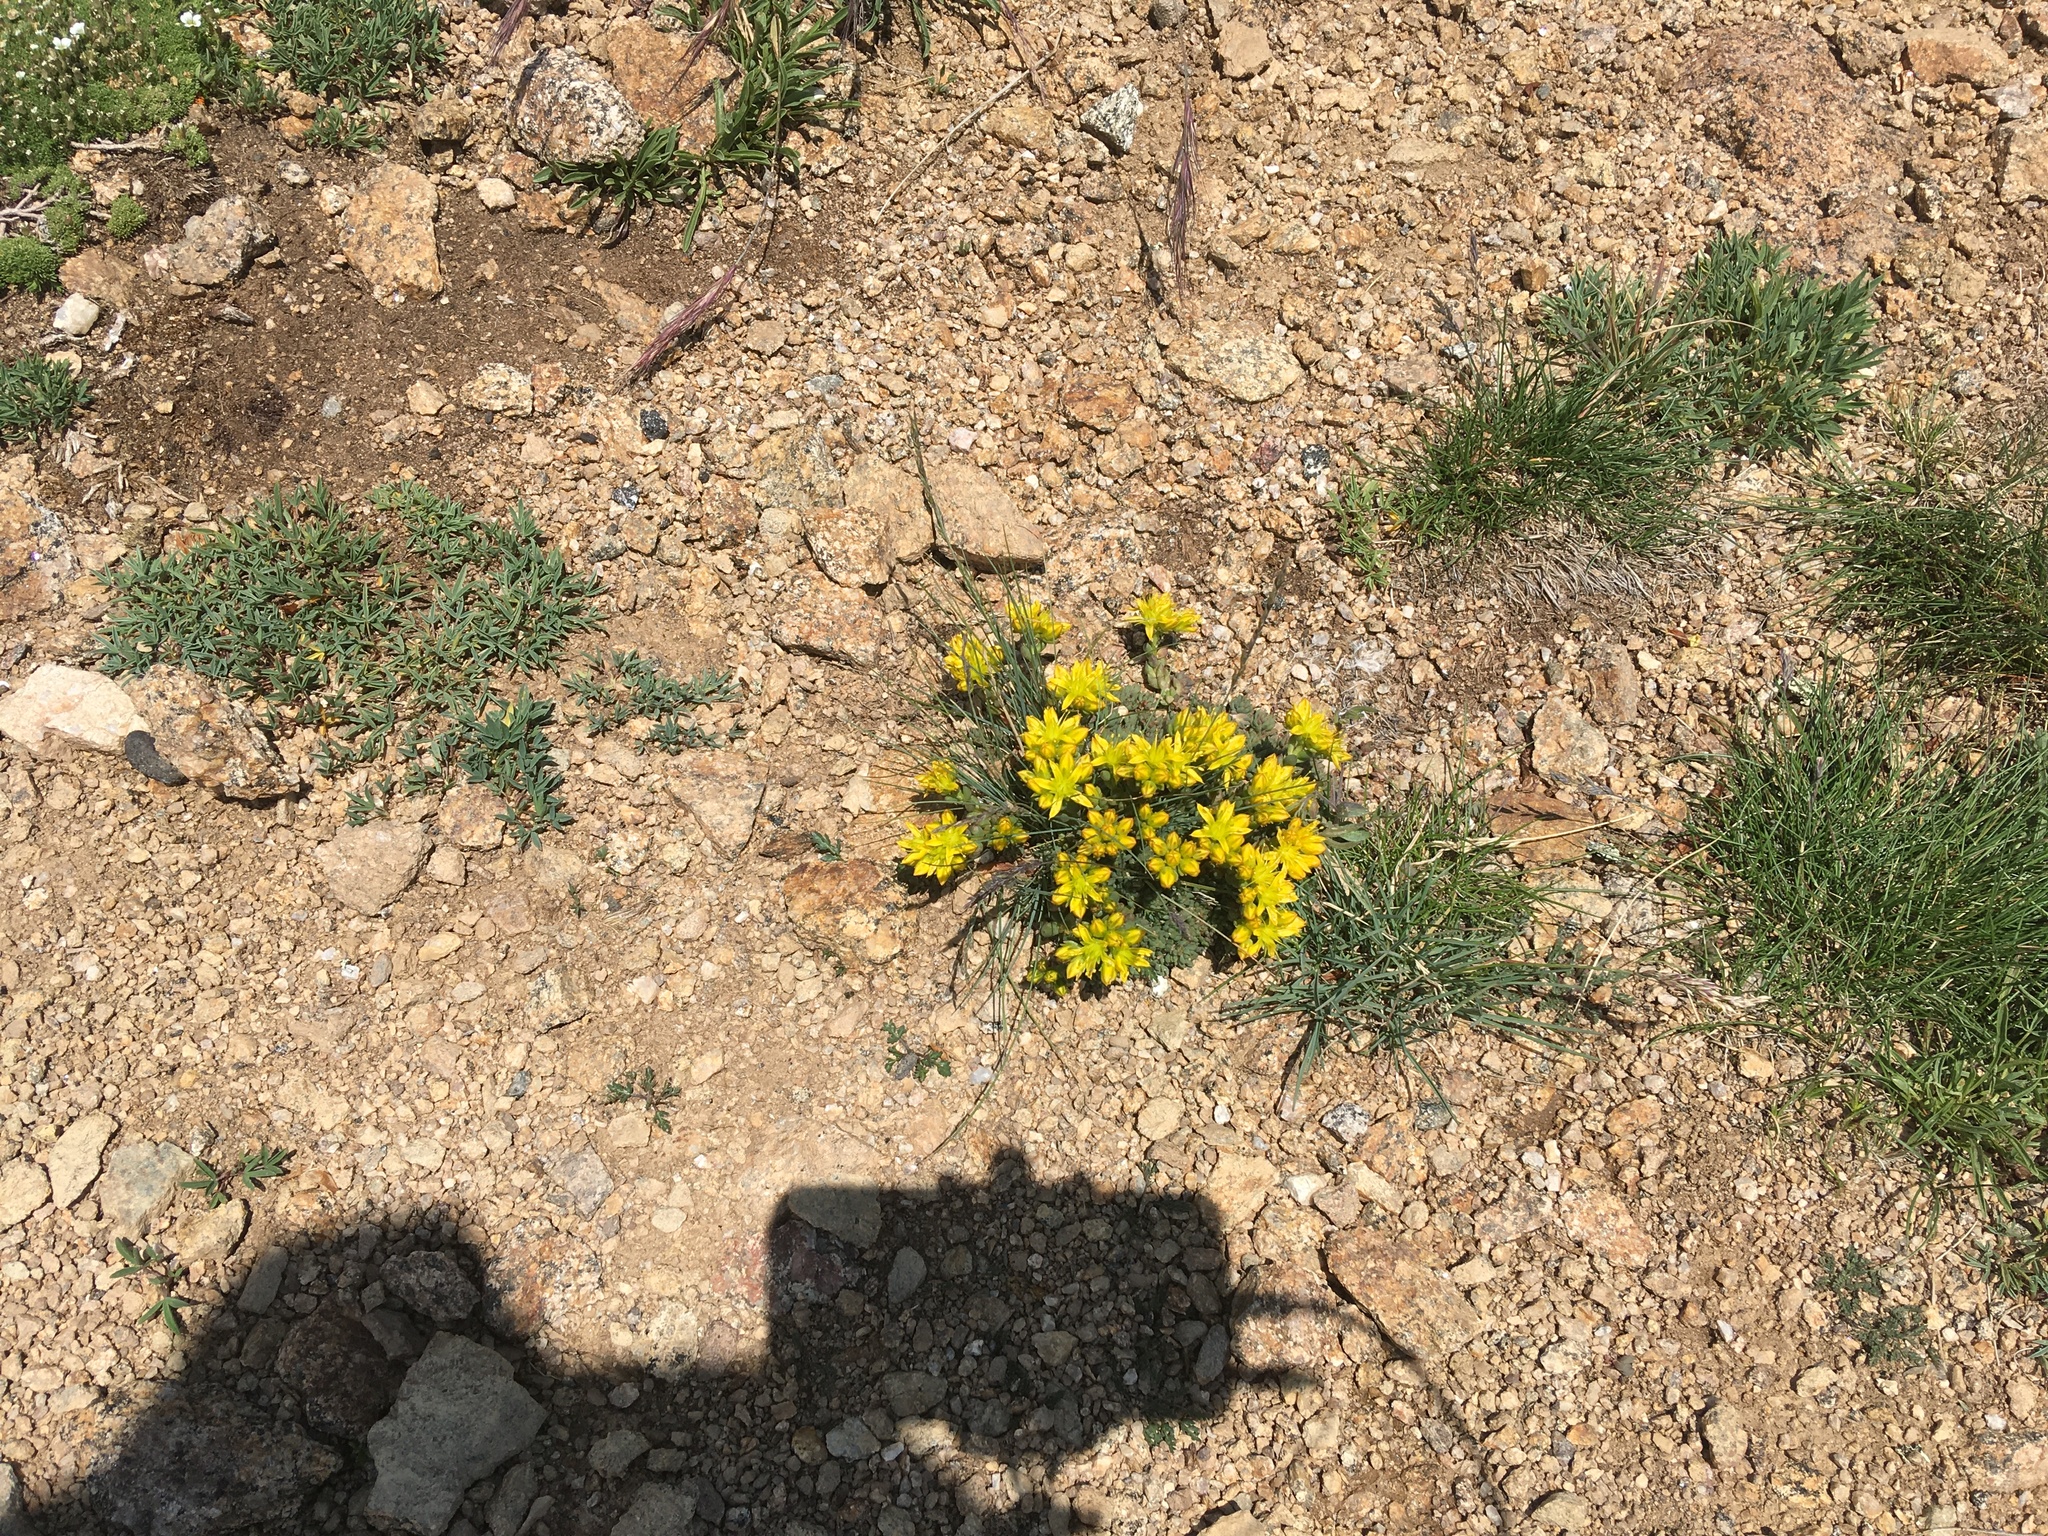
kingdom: Plantae
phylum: Tracheophyta
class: Magnoliopsida
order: Saxifragales
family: Crassulaceae
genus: Sedum
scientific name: Sedum lanceolatum
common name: Common stonecrop
